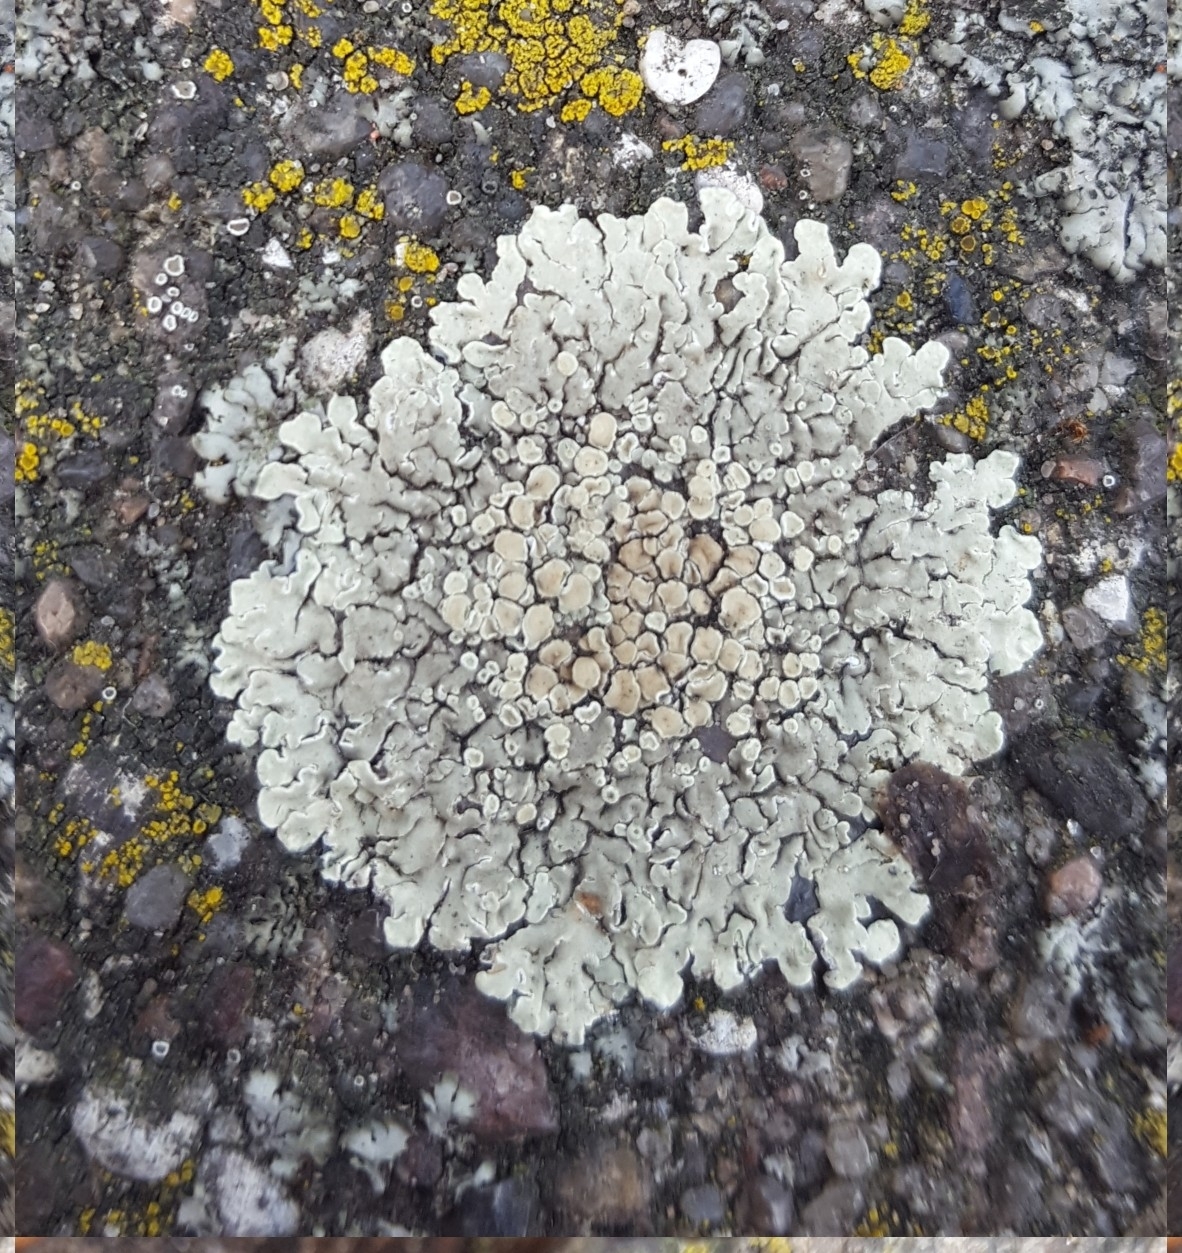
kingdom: Fungi
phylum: Ascomycota
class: Lecanoromycetes
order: Lecanorales
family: Lecanoraceae
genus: Protoparmeliopsis
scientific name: Protoparmeliopsis muralis
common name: Stonewall rim lichen
